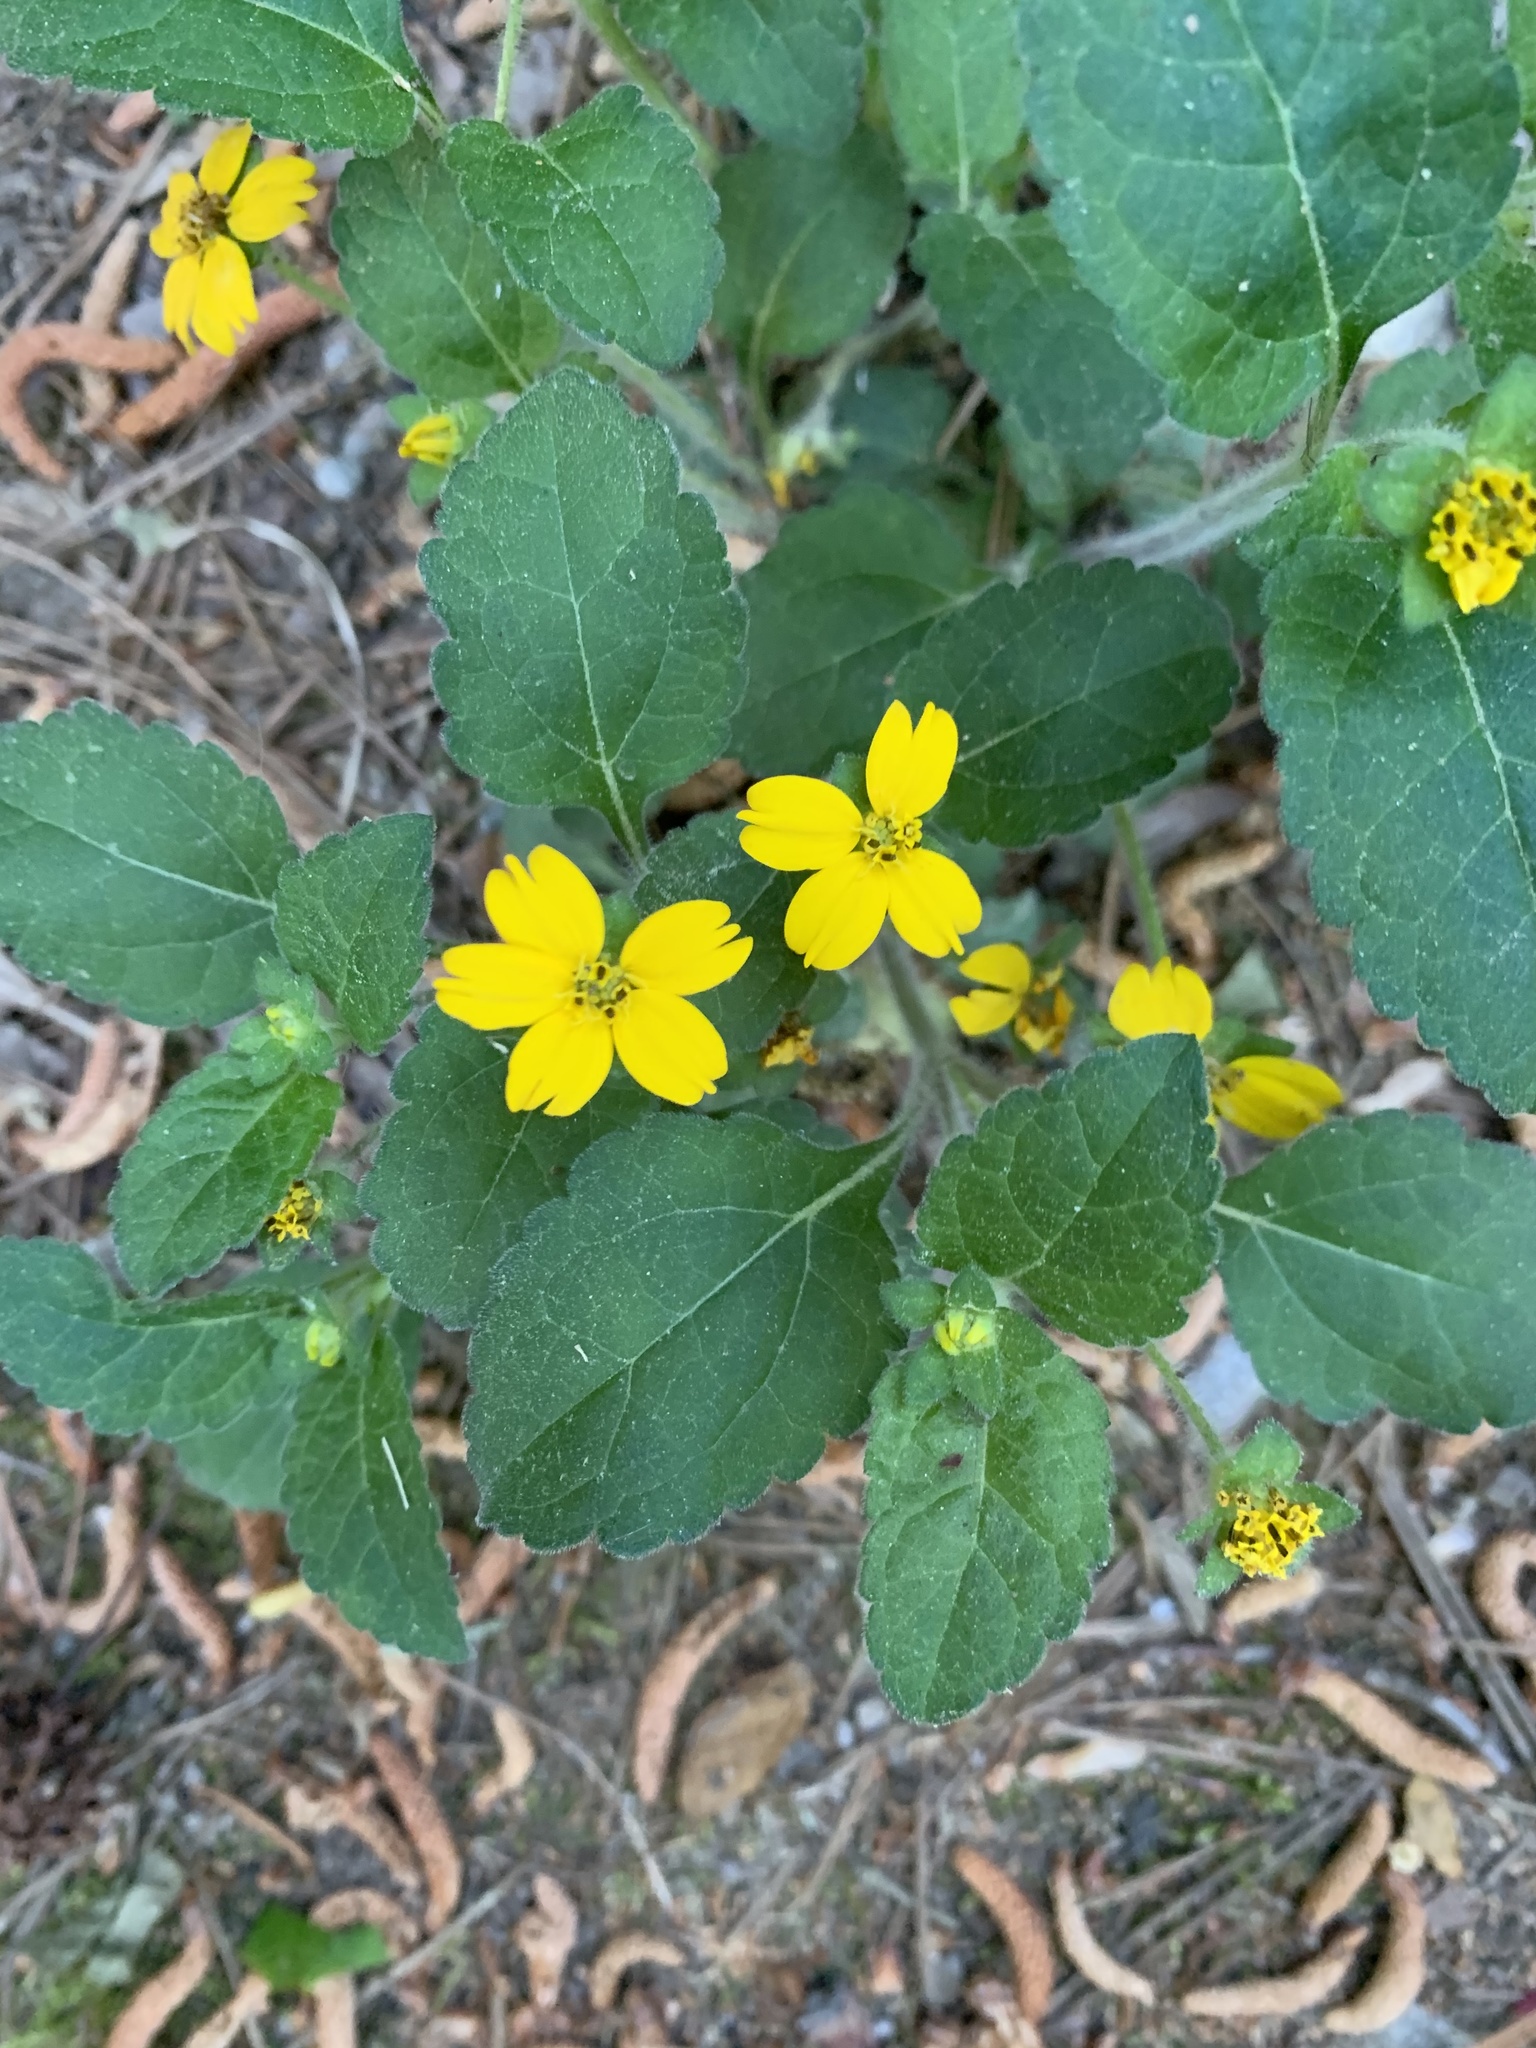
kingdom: Plantae
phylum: Tracheophyta
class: Magnoliopsida
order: Asterales
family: Asteraceae
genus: Chrysogonum
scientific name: Chrysogonum virginianum
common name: Golden-knee
